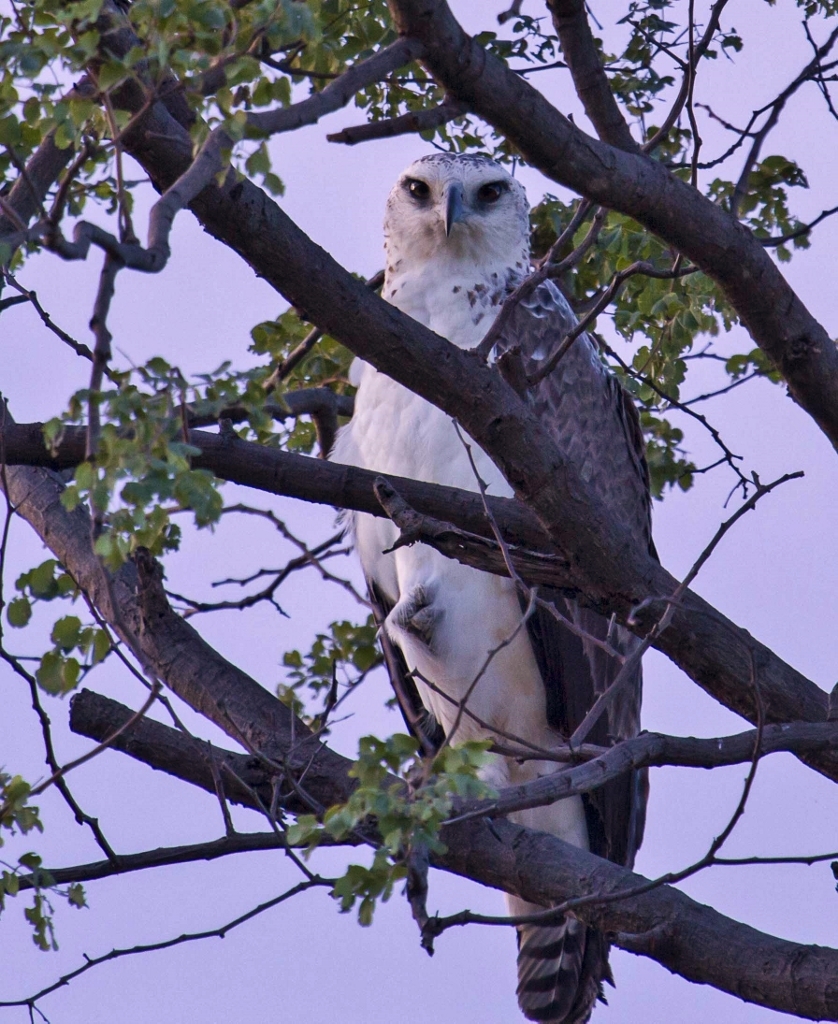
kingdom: Animalia
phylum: Chordata
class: Aves
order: Accipitriformes
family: Accipitridae
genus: Polemaetus
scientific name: Polemaetus bellicosus
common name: Martial eagle
